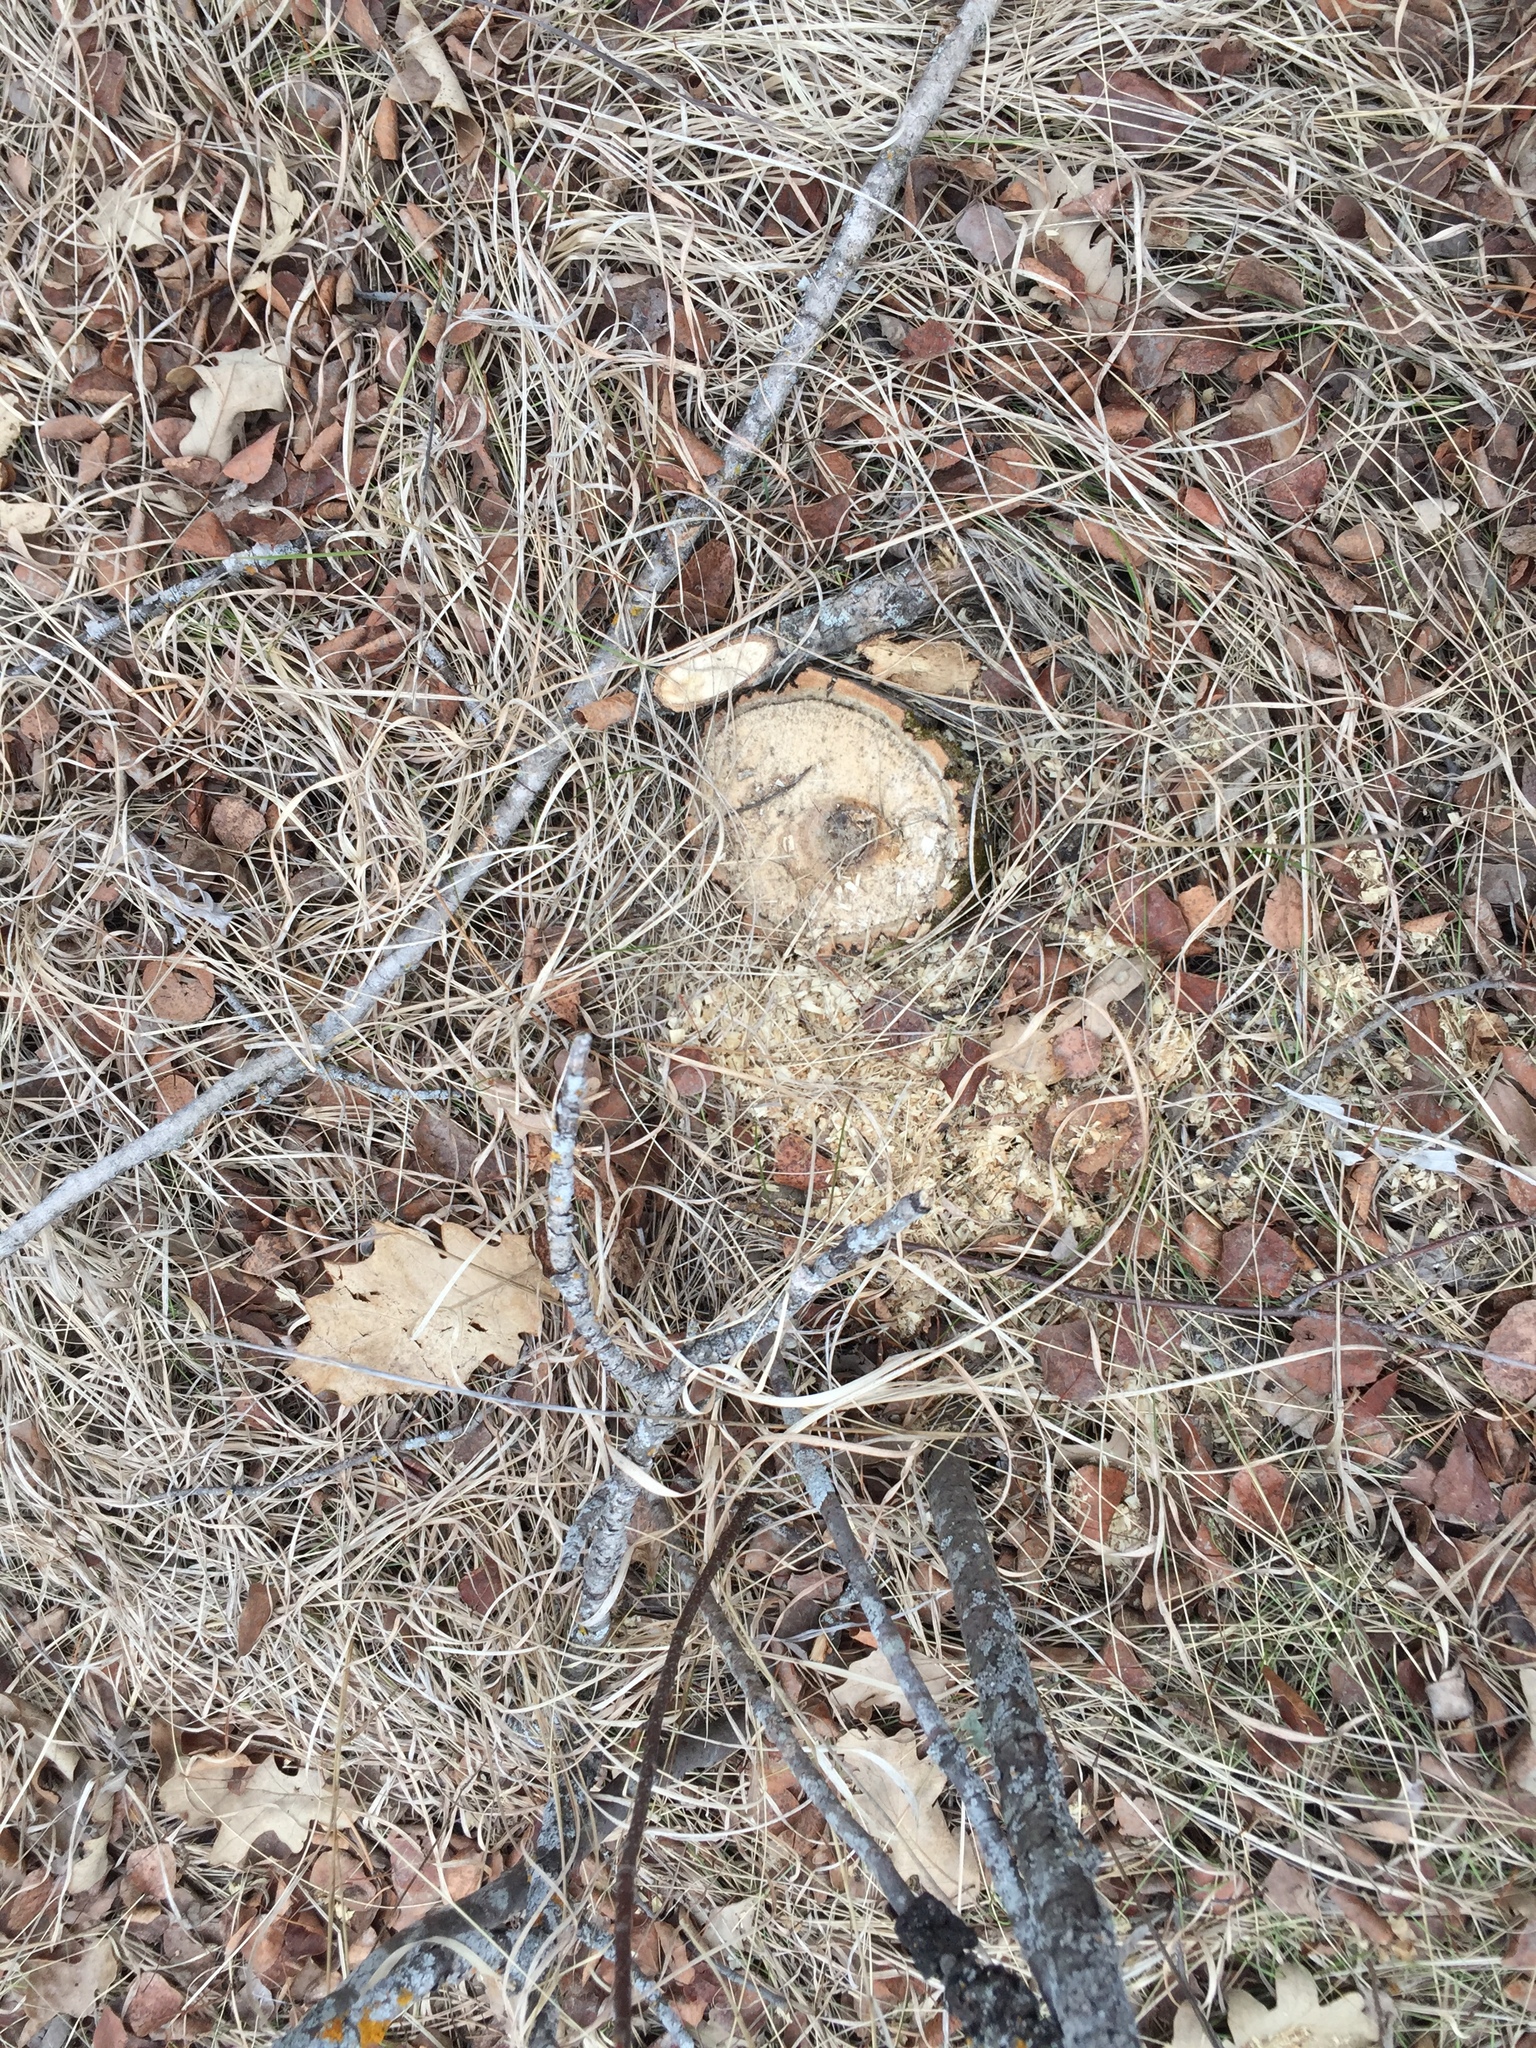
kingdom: Plantae
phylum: Tracheophyta
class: Magnoliopsida
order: Fagales
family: Fagaceae
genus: Quercus
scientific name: Quercus macrocarpa
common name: Bur oak
